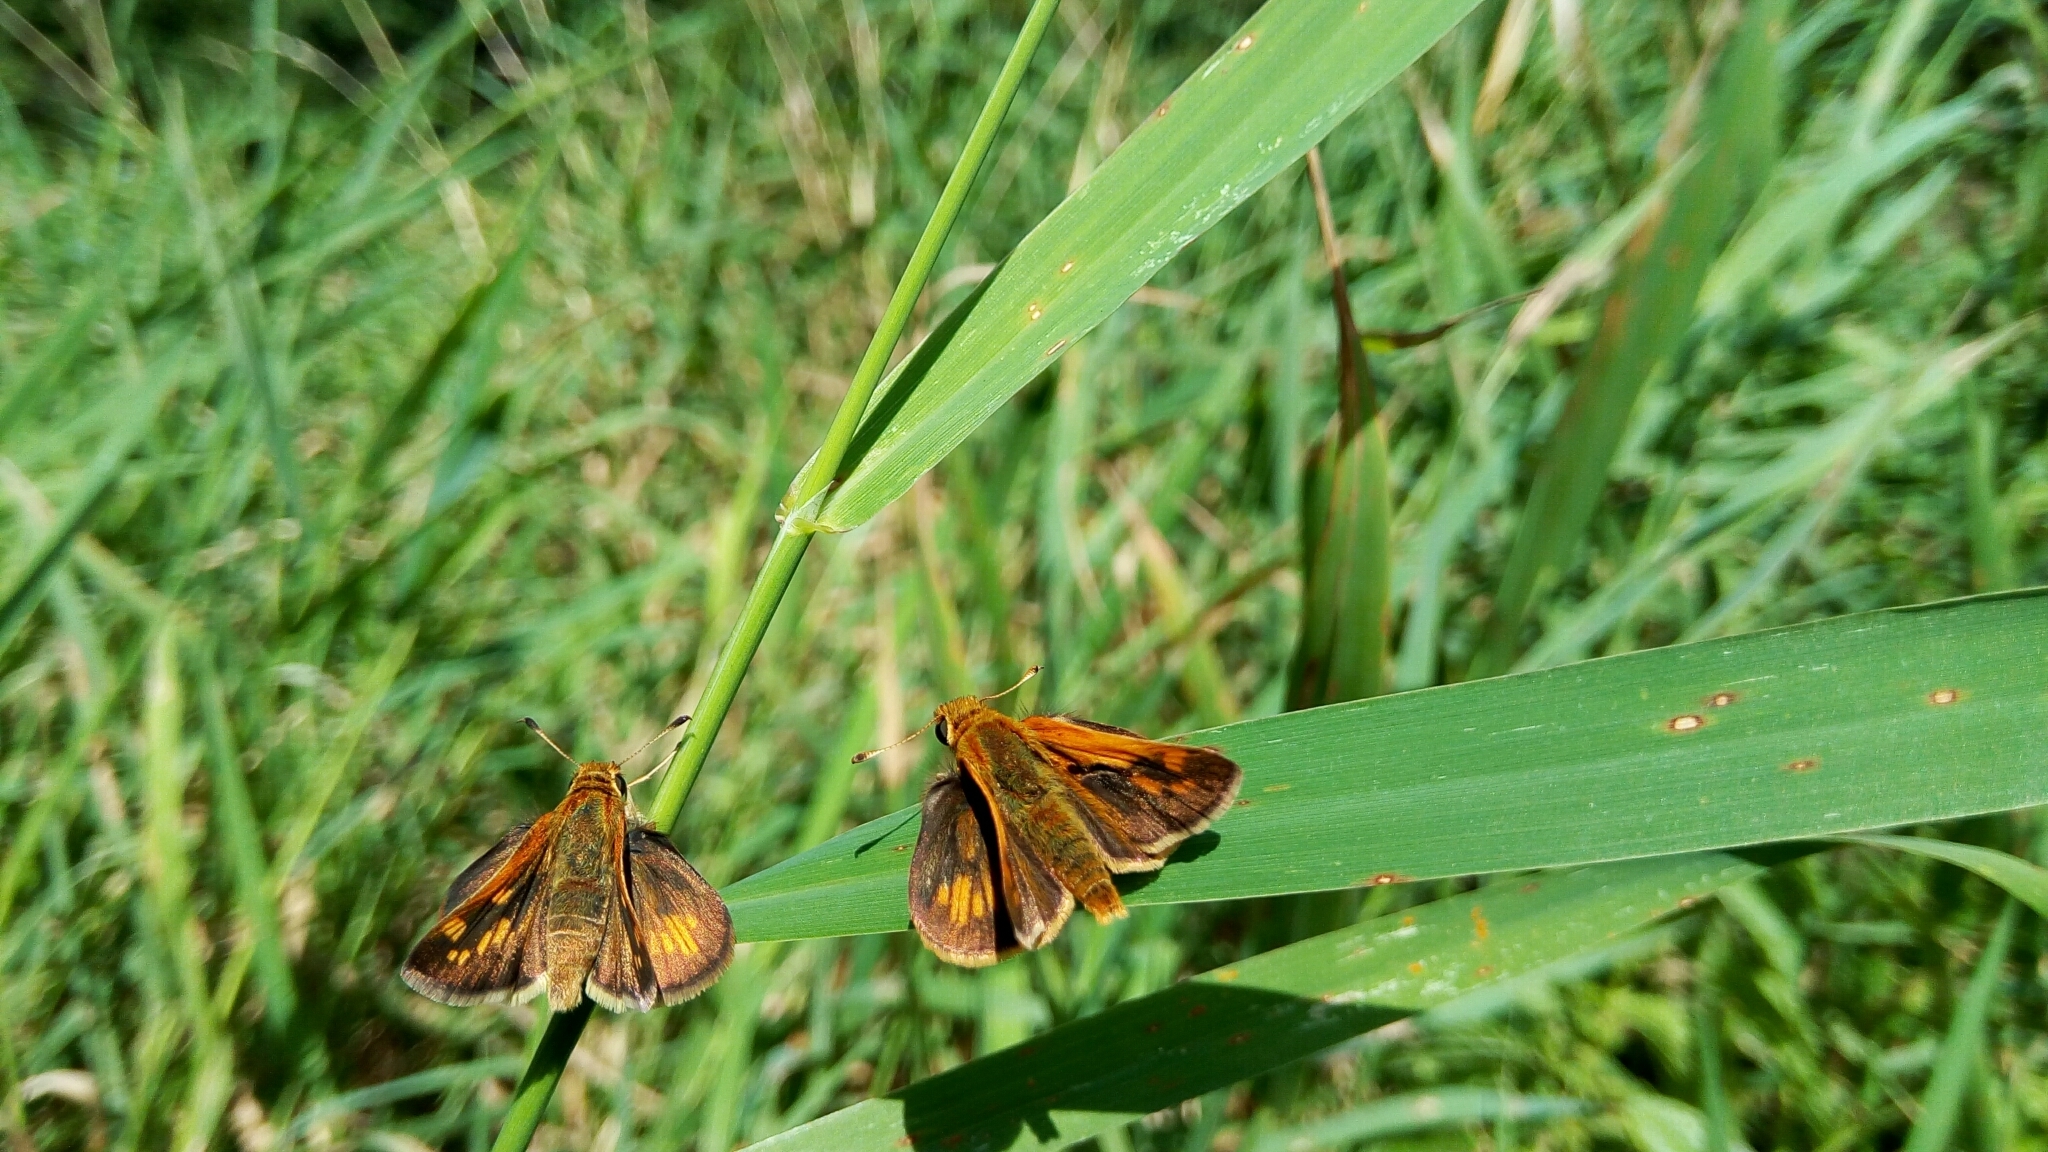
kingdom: Animalia
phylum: Arthropoda
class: Insecta
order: Lepidoptera
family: Hesperiidae
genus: Polites
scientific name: Polites coras
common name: Peck's skipper
